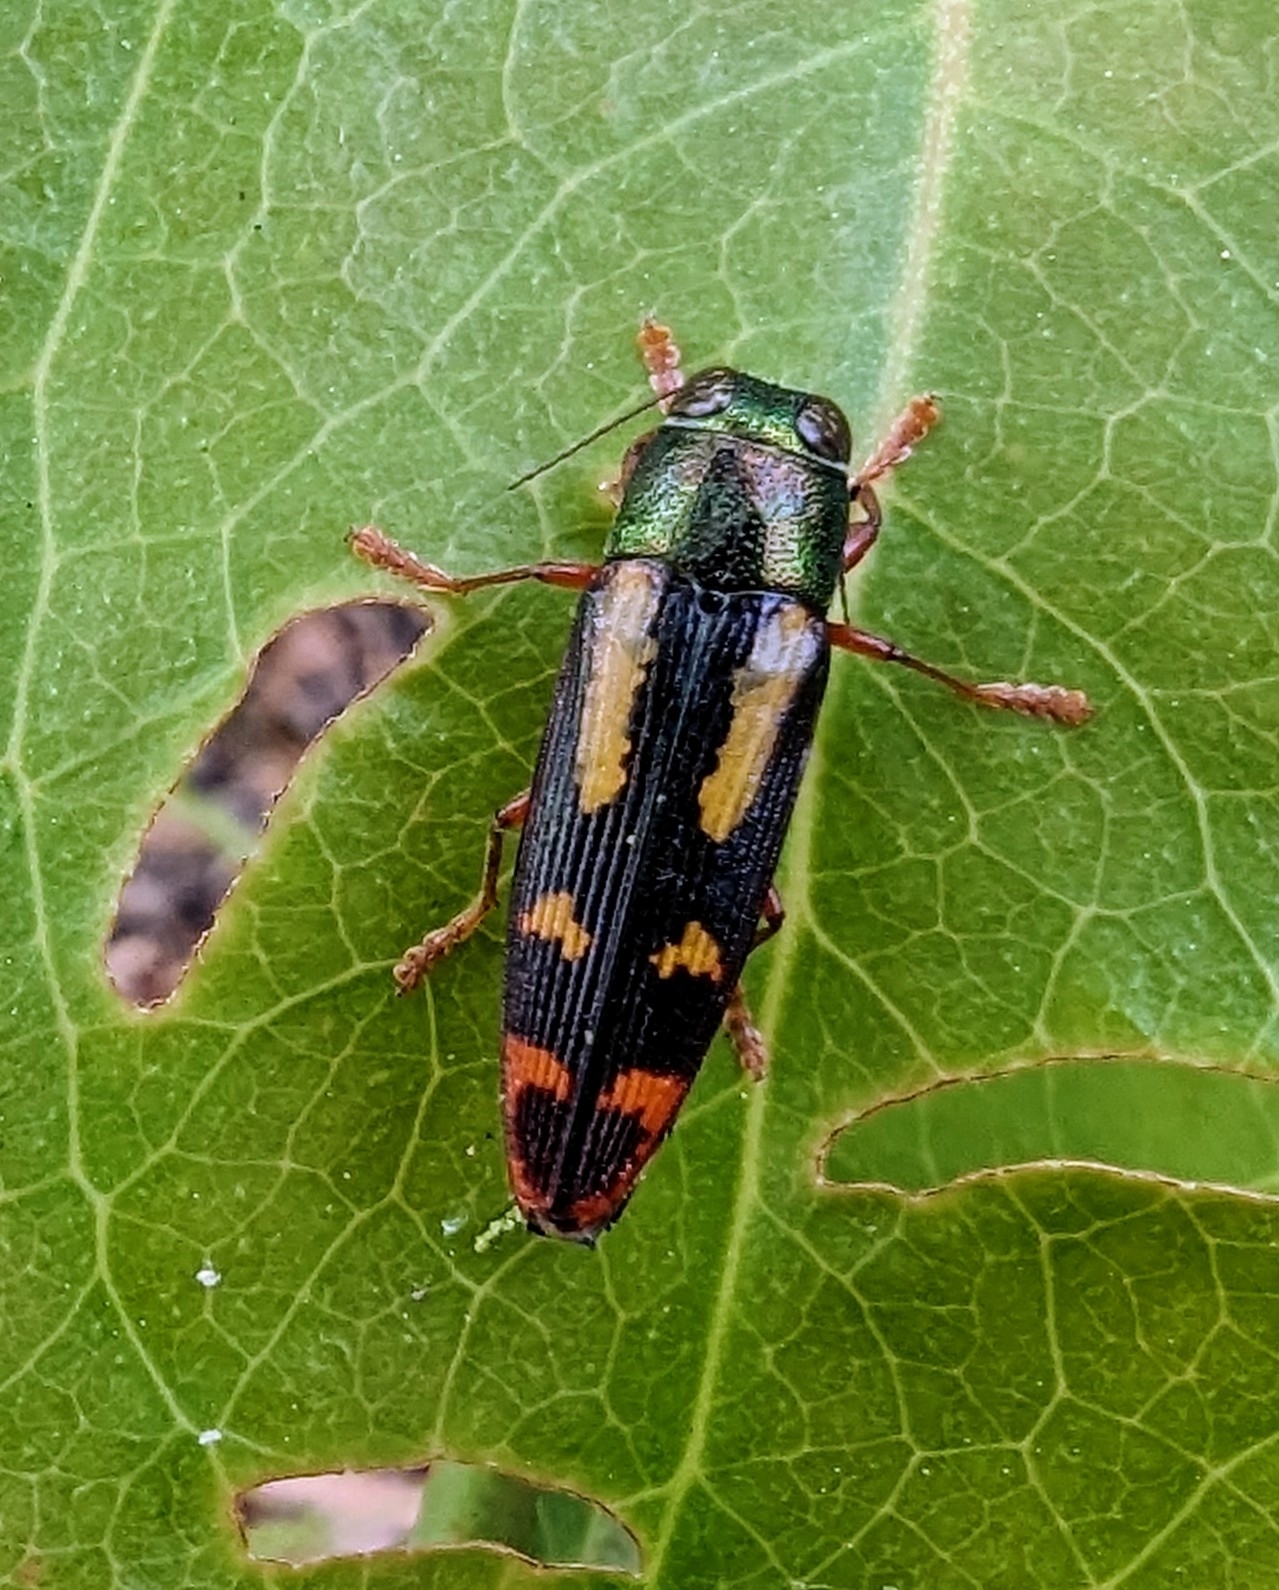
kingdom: Animalia
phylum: Arthropoda
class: Insecta
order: Coleoptera
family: Buprestidae
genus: Buprestis
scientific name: Buprestis rufipes
